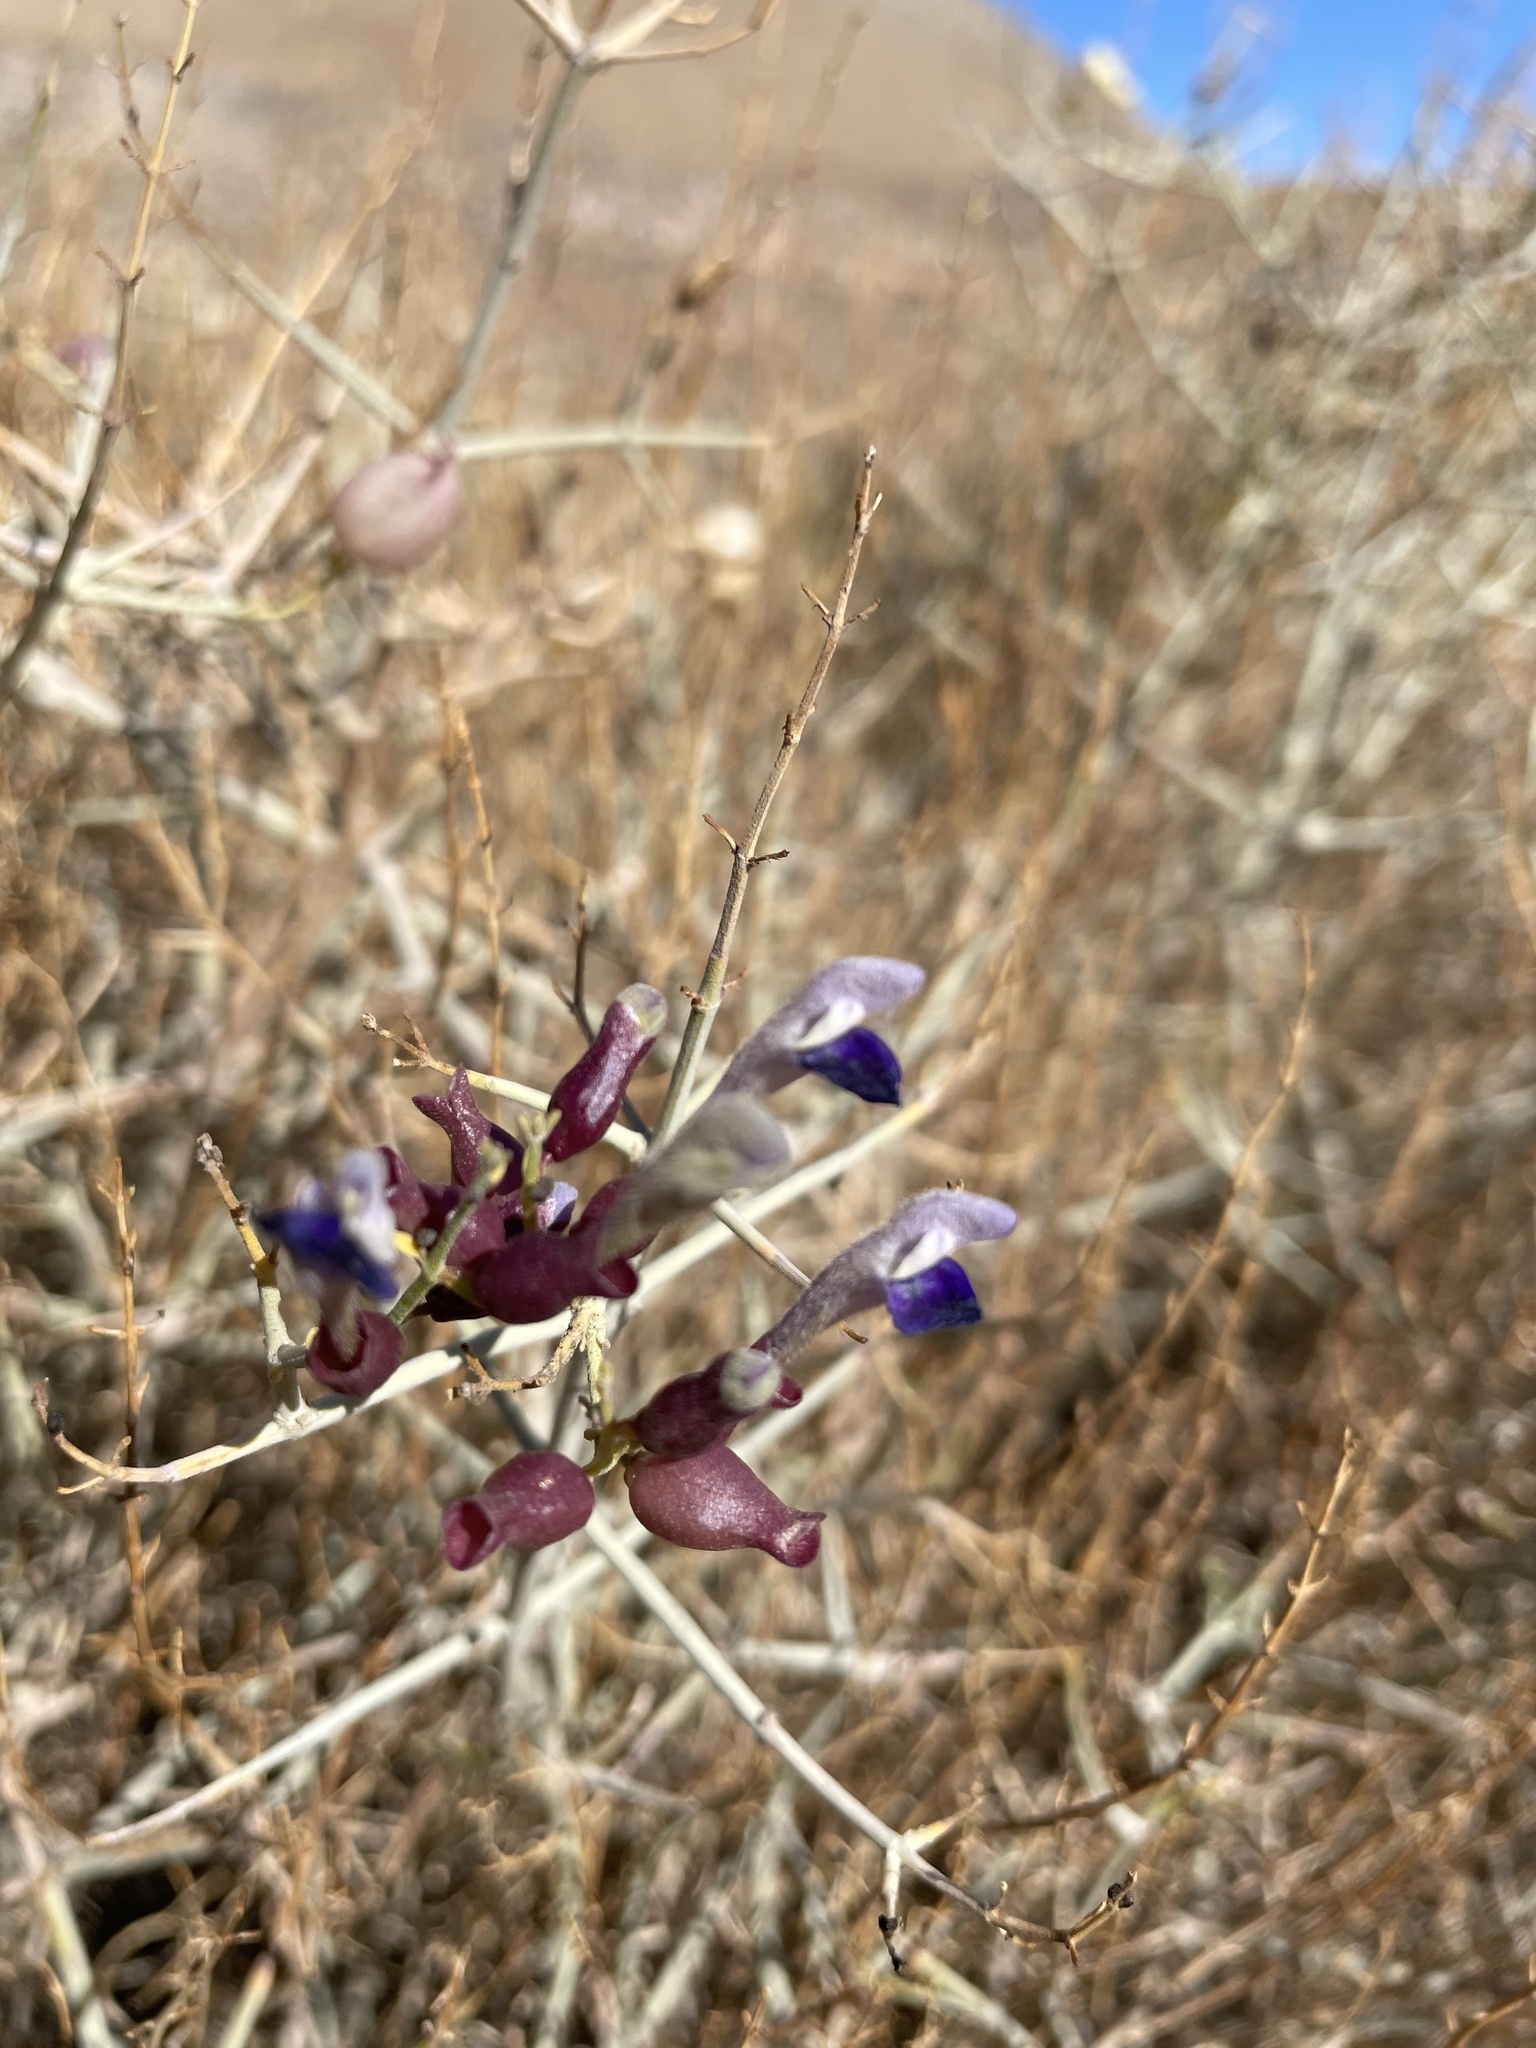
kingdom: Plantae
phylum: Tracheophyta
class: Magnoliopsida
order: Lamiales
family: Lamiaceae
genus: Scutellaria
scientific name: Scutellaria mexicana
